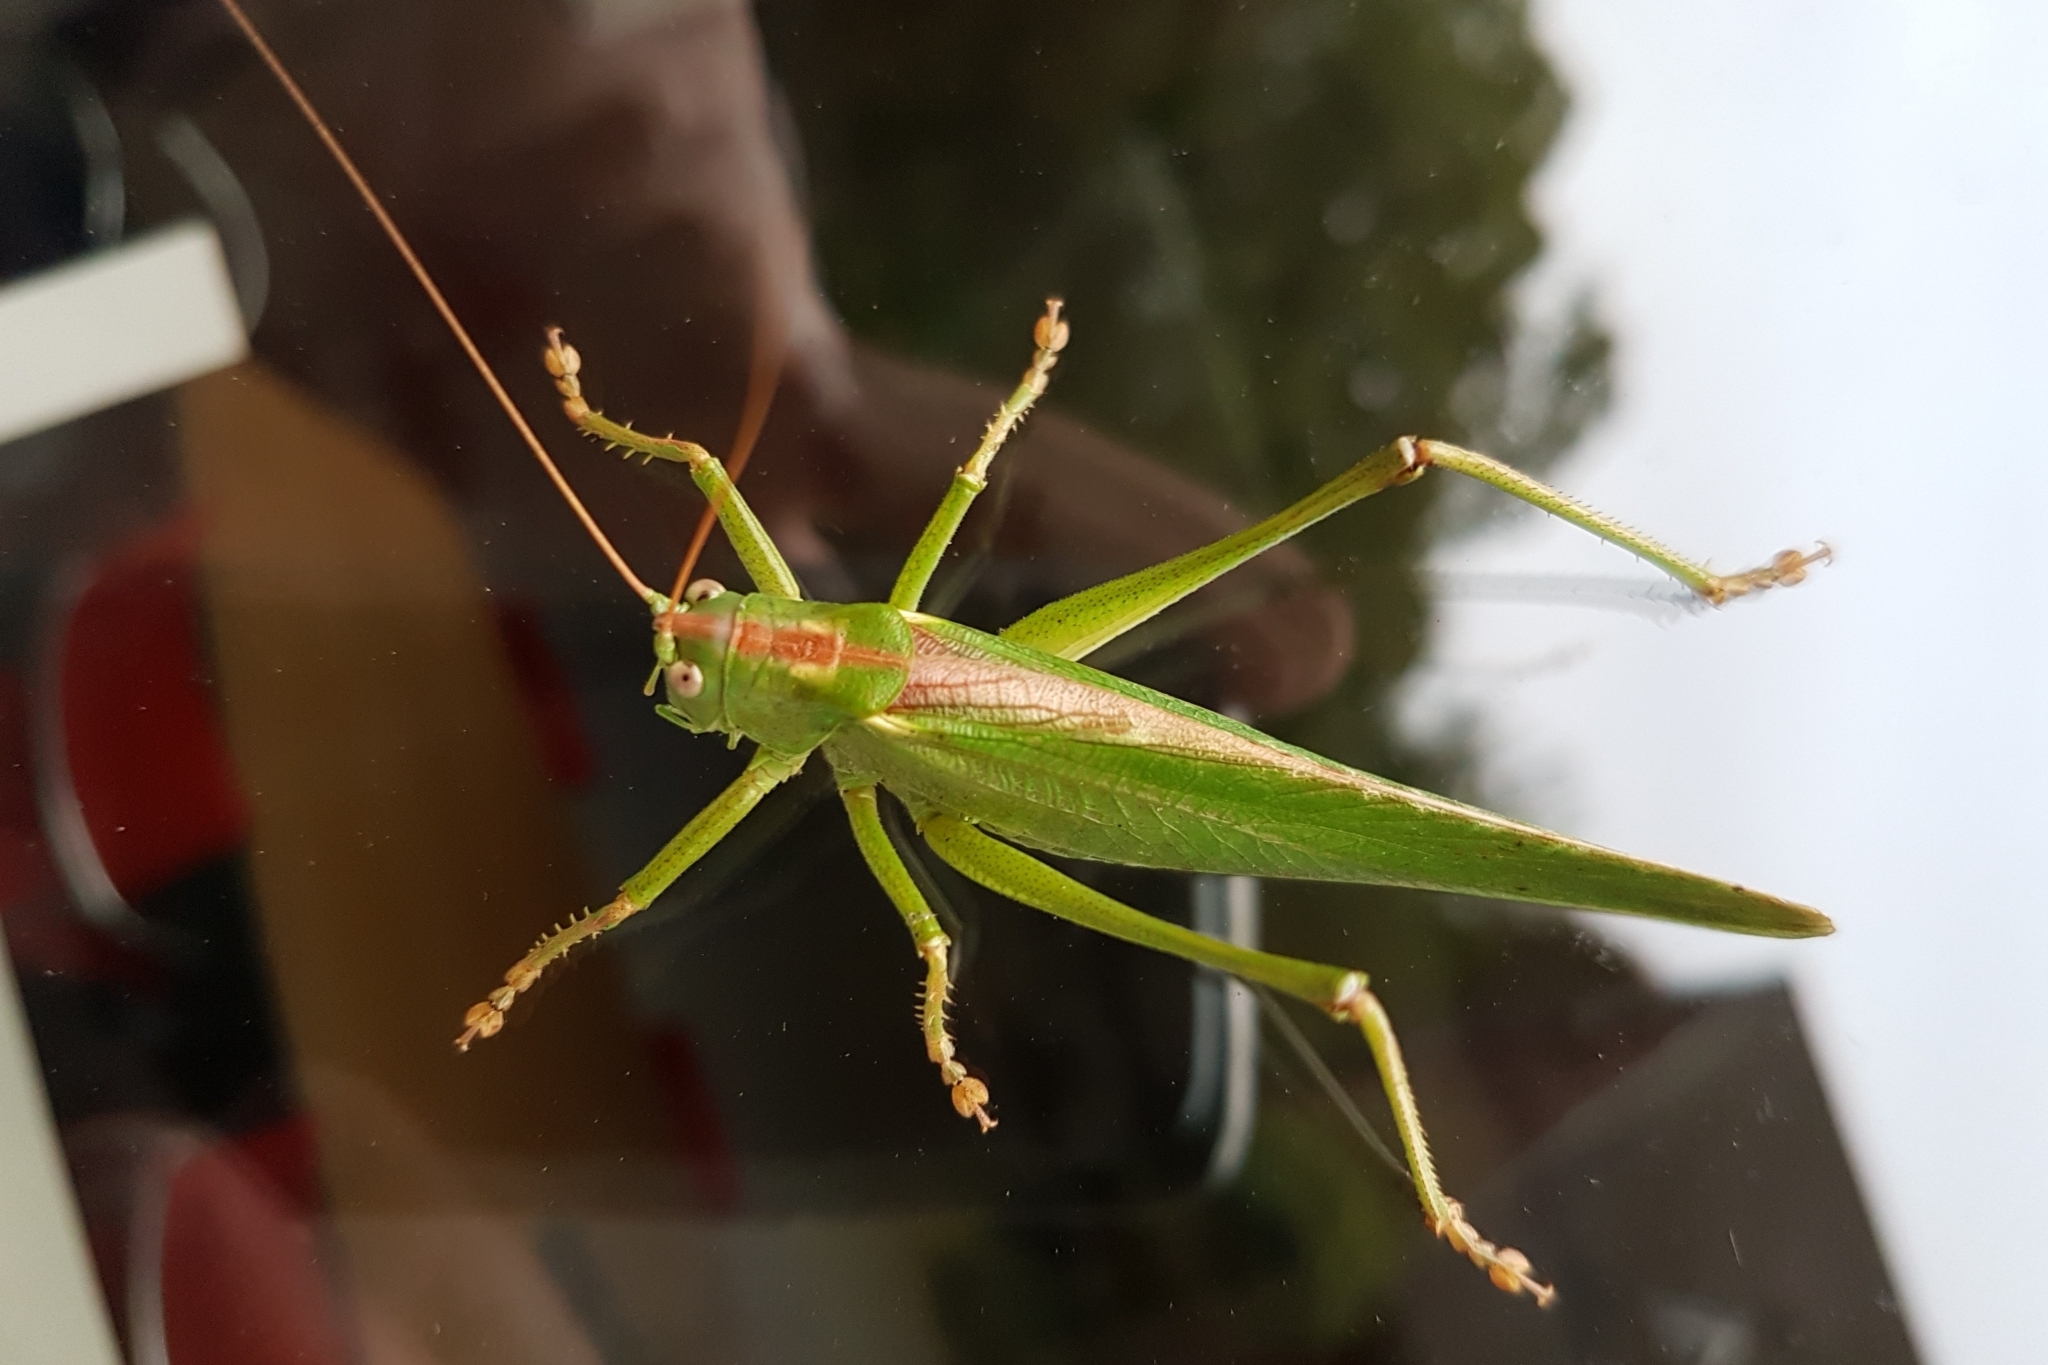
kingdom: Animalia
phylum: Arthropoda
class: Insecta
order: Orthoptera
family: Tettigoniidae
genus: Tettigonia
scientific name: Tettigonia viridissima
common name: Great green bush-cricket
